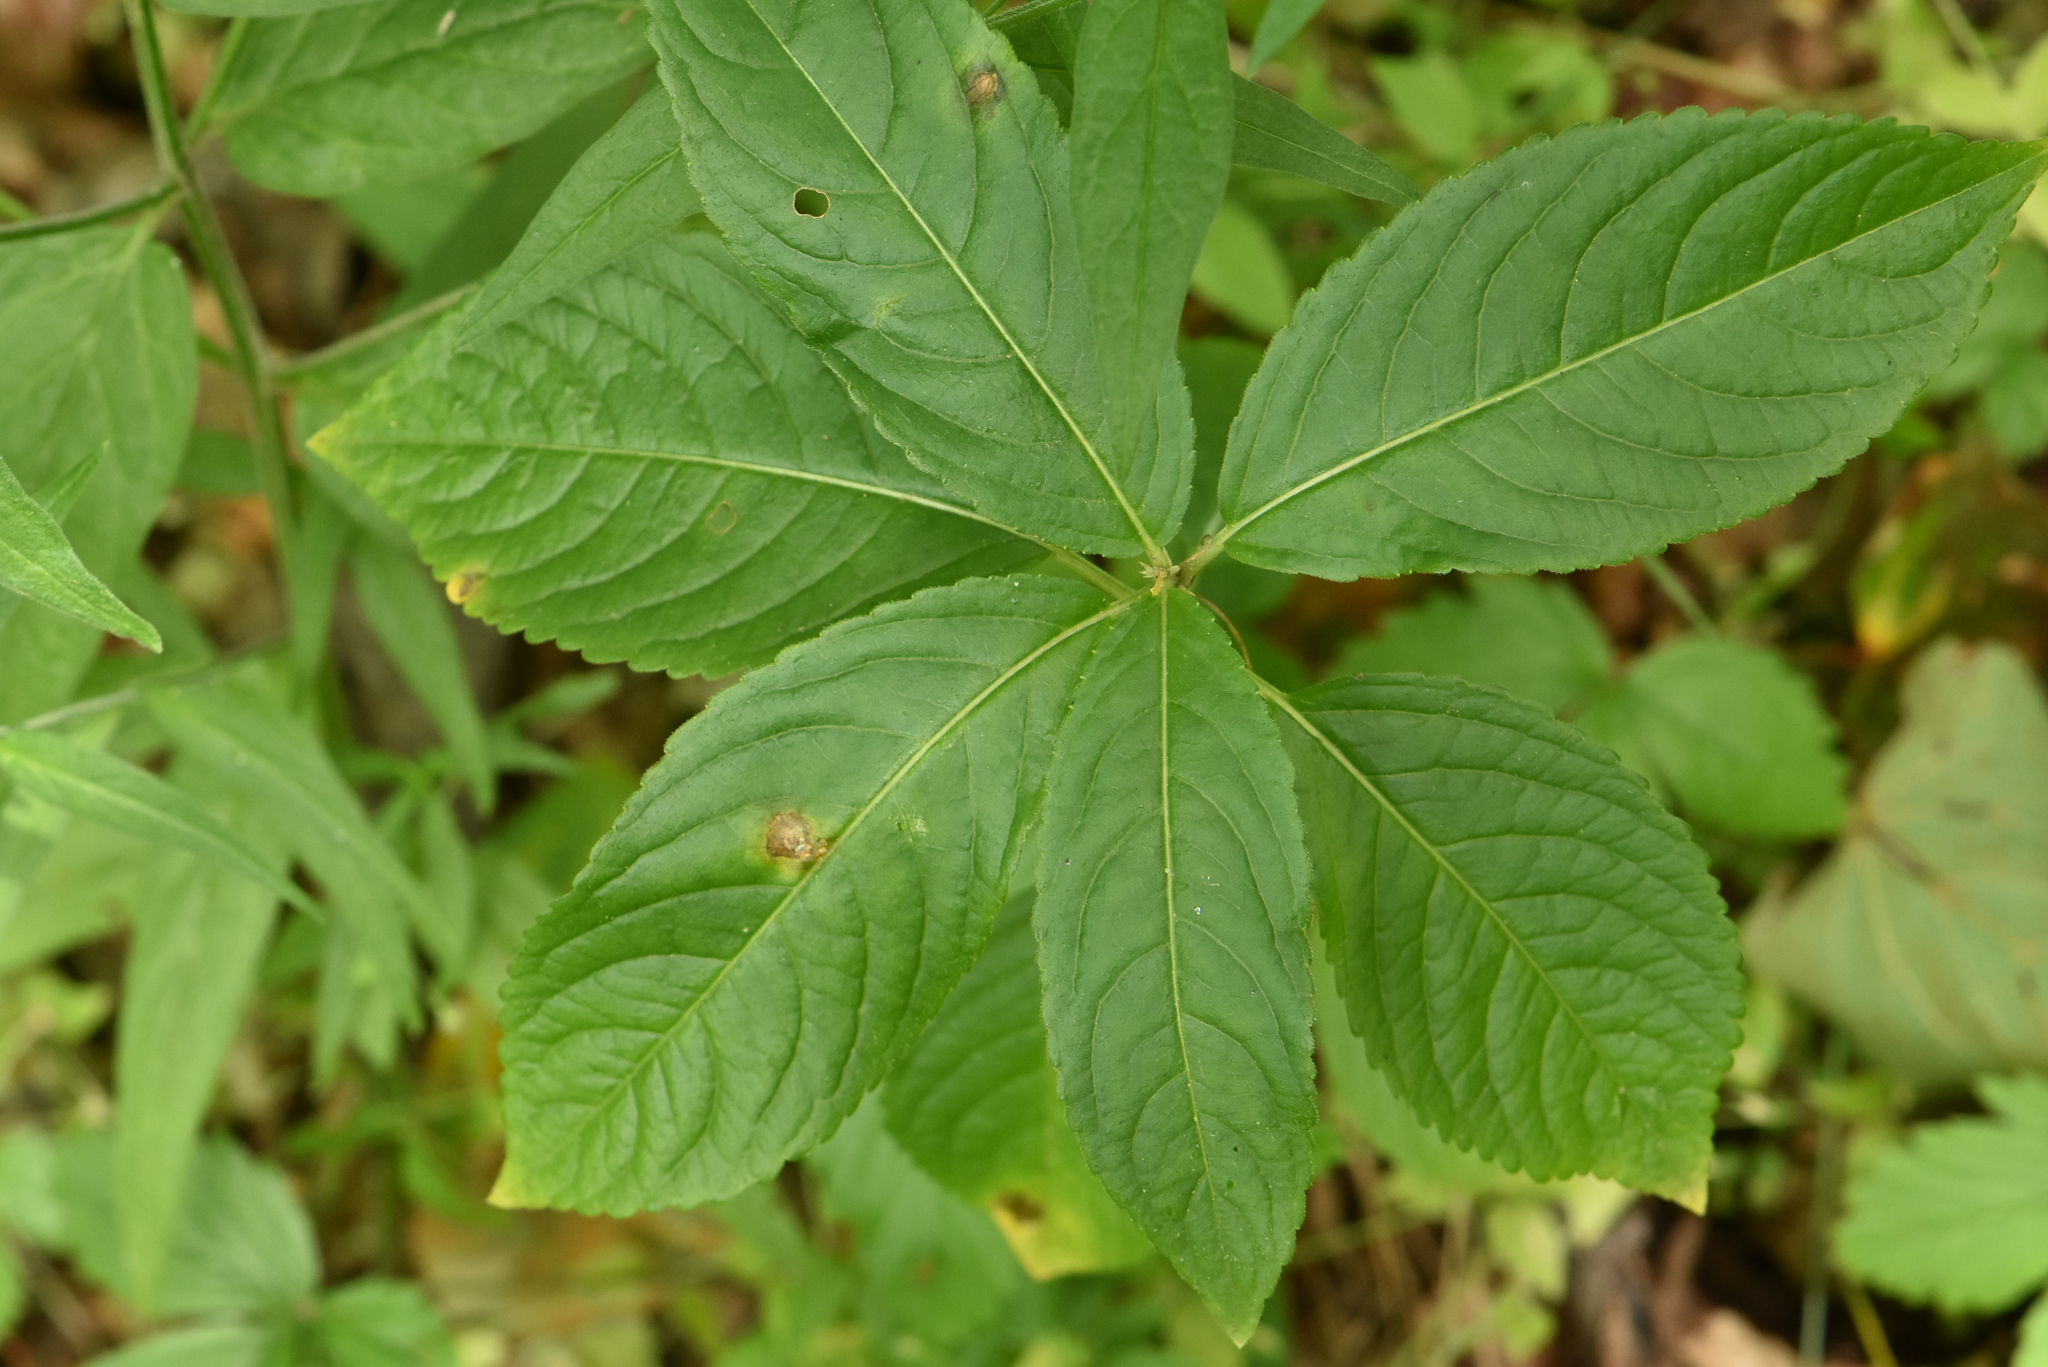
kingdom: Plantae
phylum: Tracheophyta
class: Magnoliopsida
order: Malpighiales
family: Euphorbiaceae
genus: Mercurialis
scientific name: Mercurialis perennis
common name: Dog mercury
